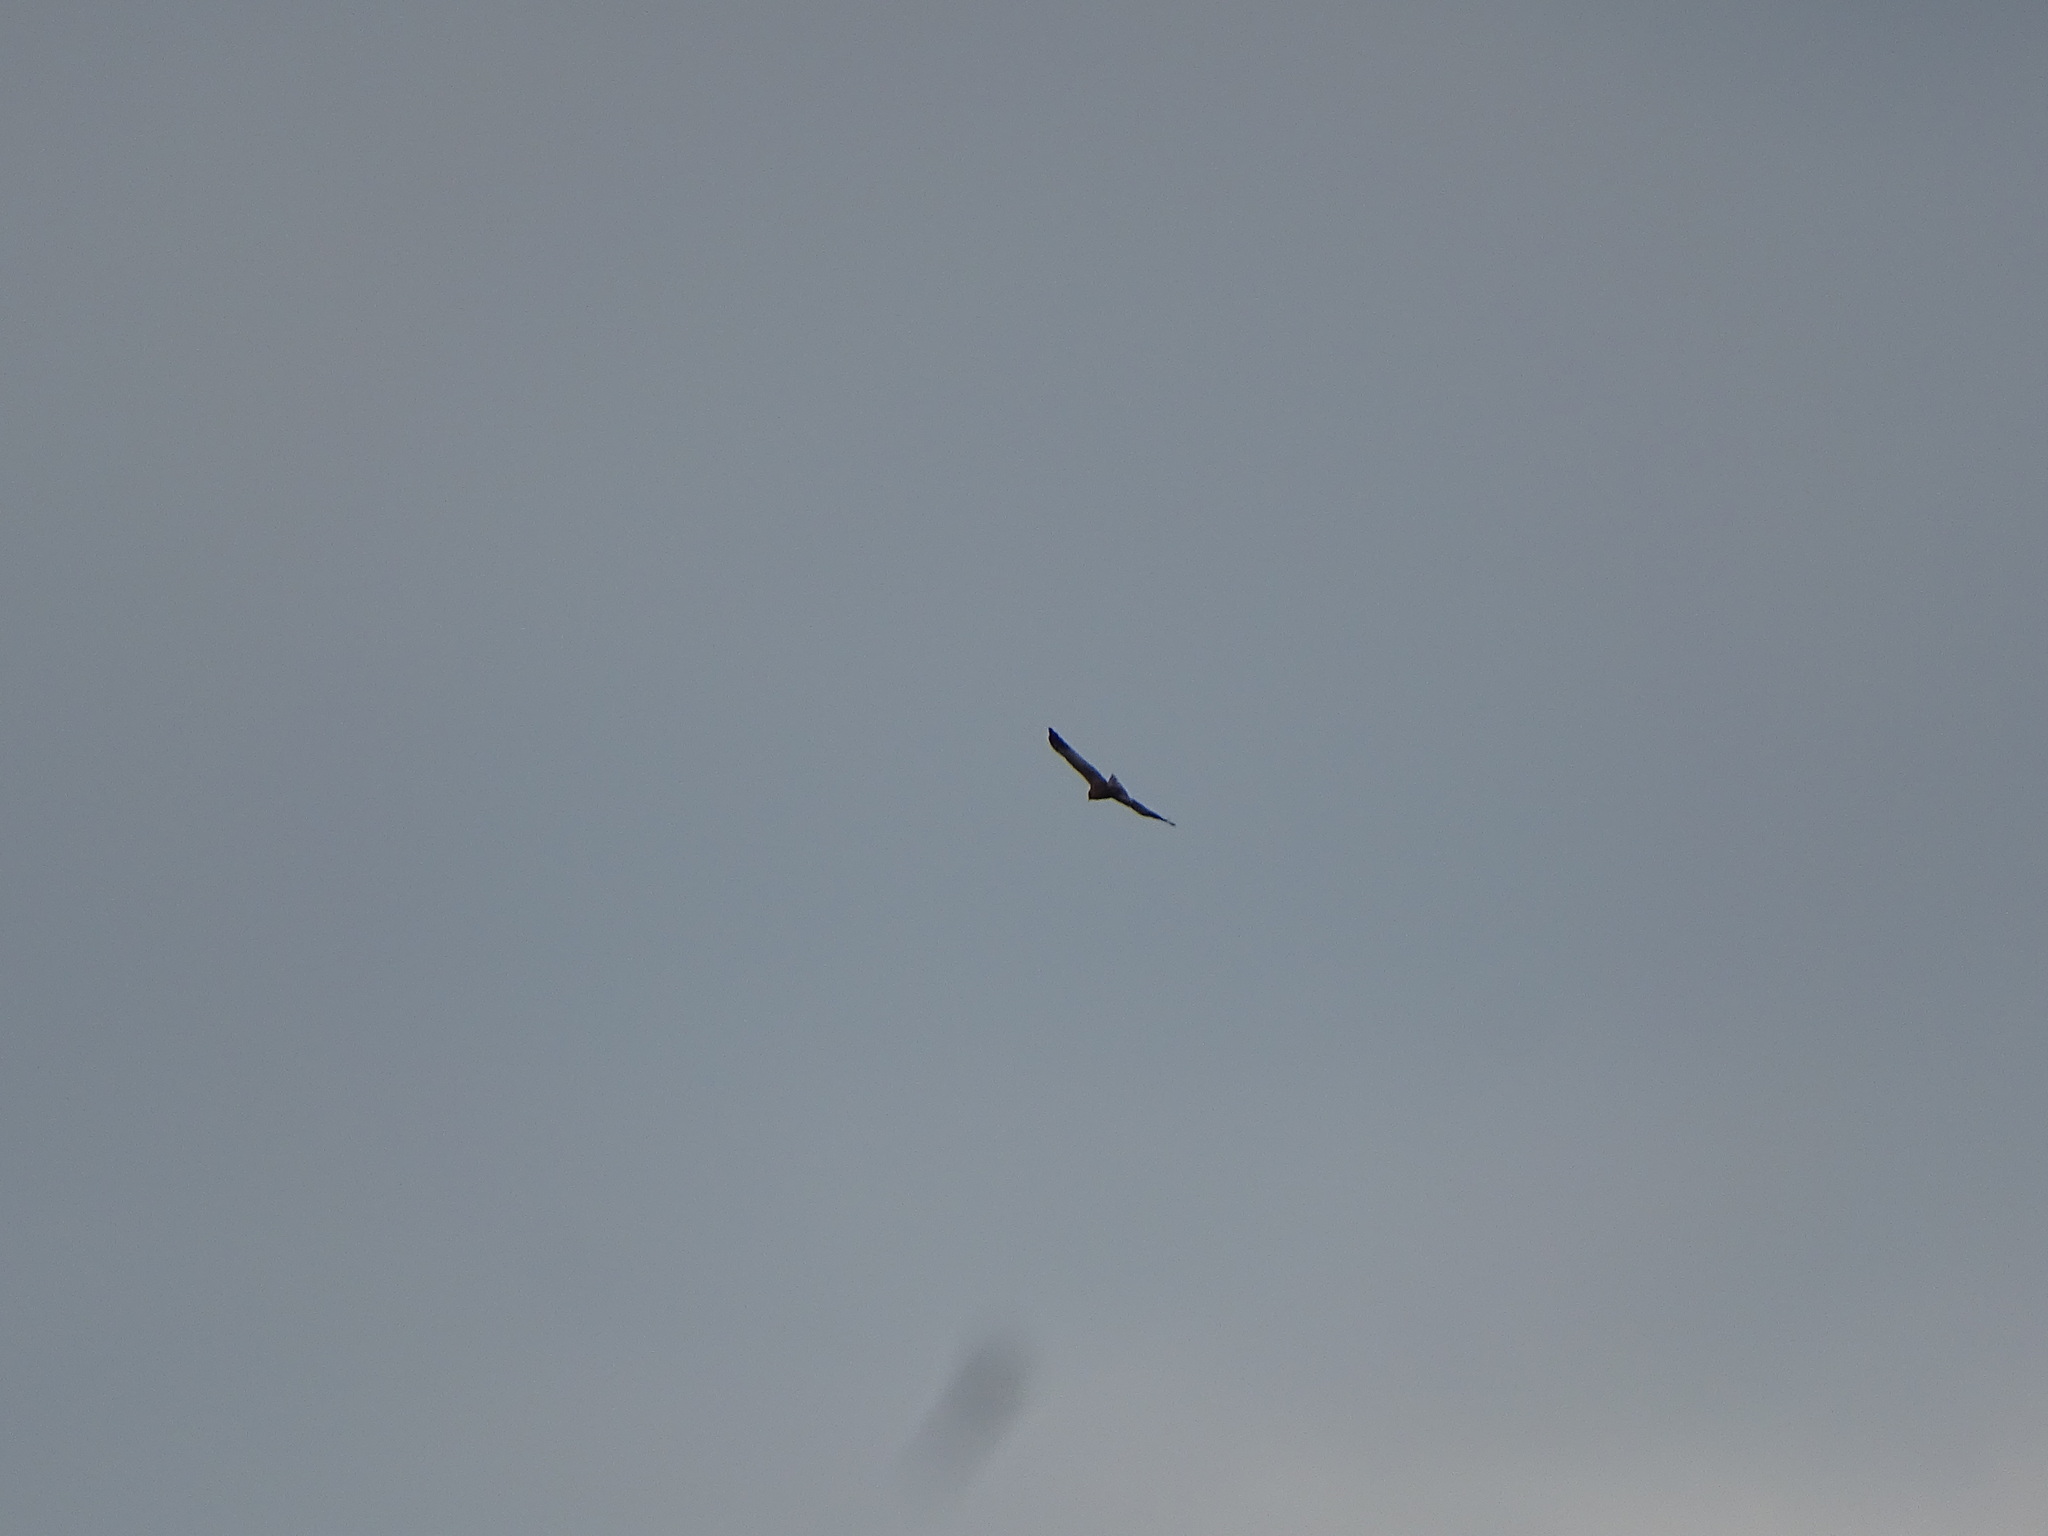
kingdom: Animalia
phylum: Chordata
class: Aves
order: Accipitriformes
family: Accipitridae
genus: Circus
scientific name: Circus aeruginosus
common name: Western marsh harrier
